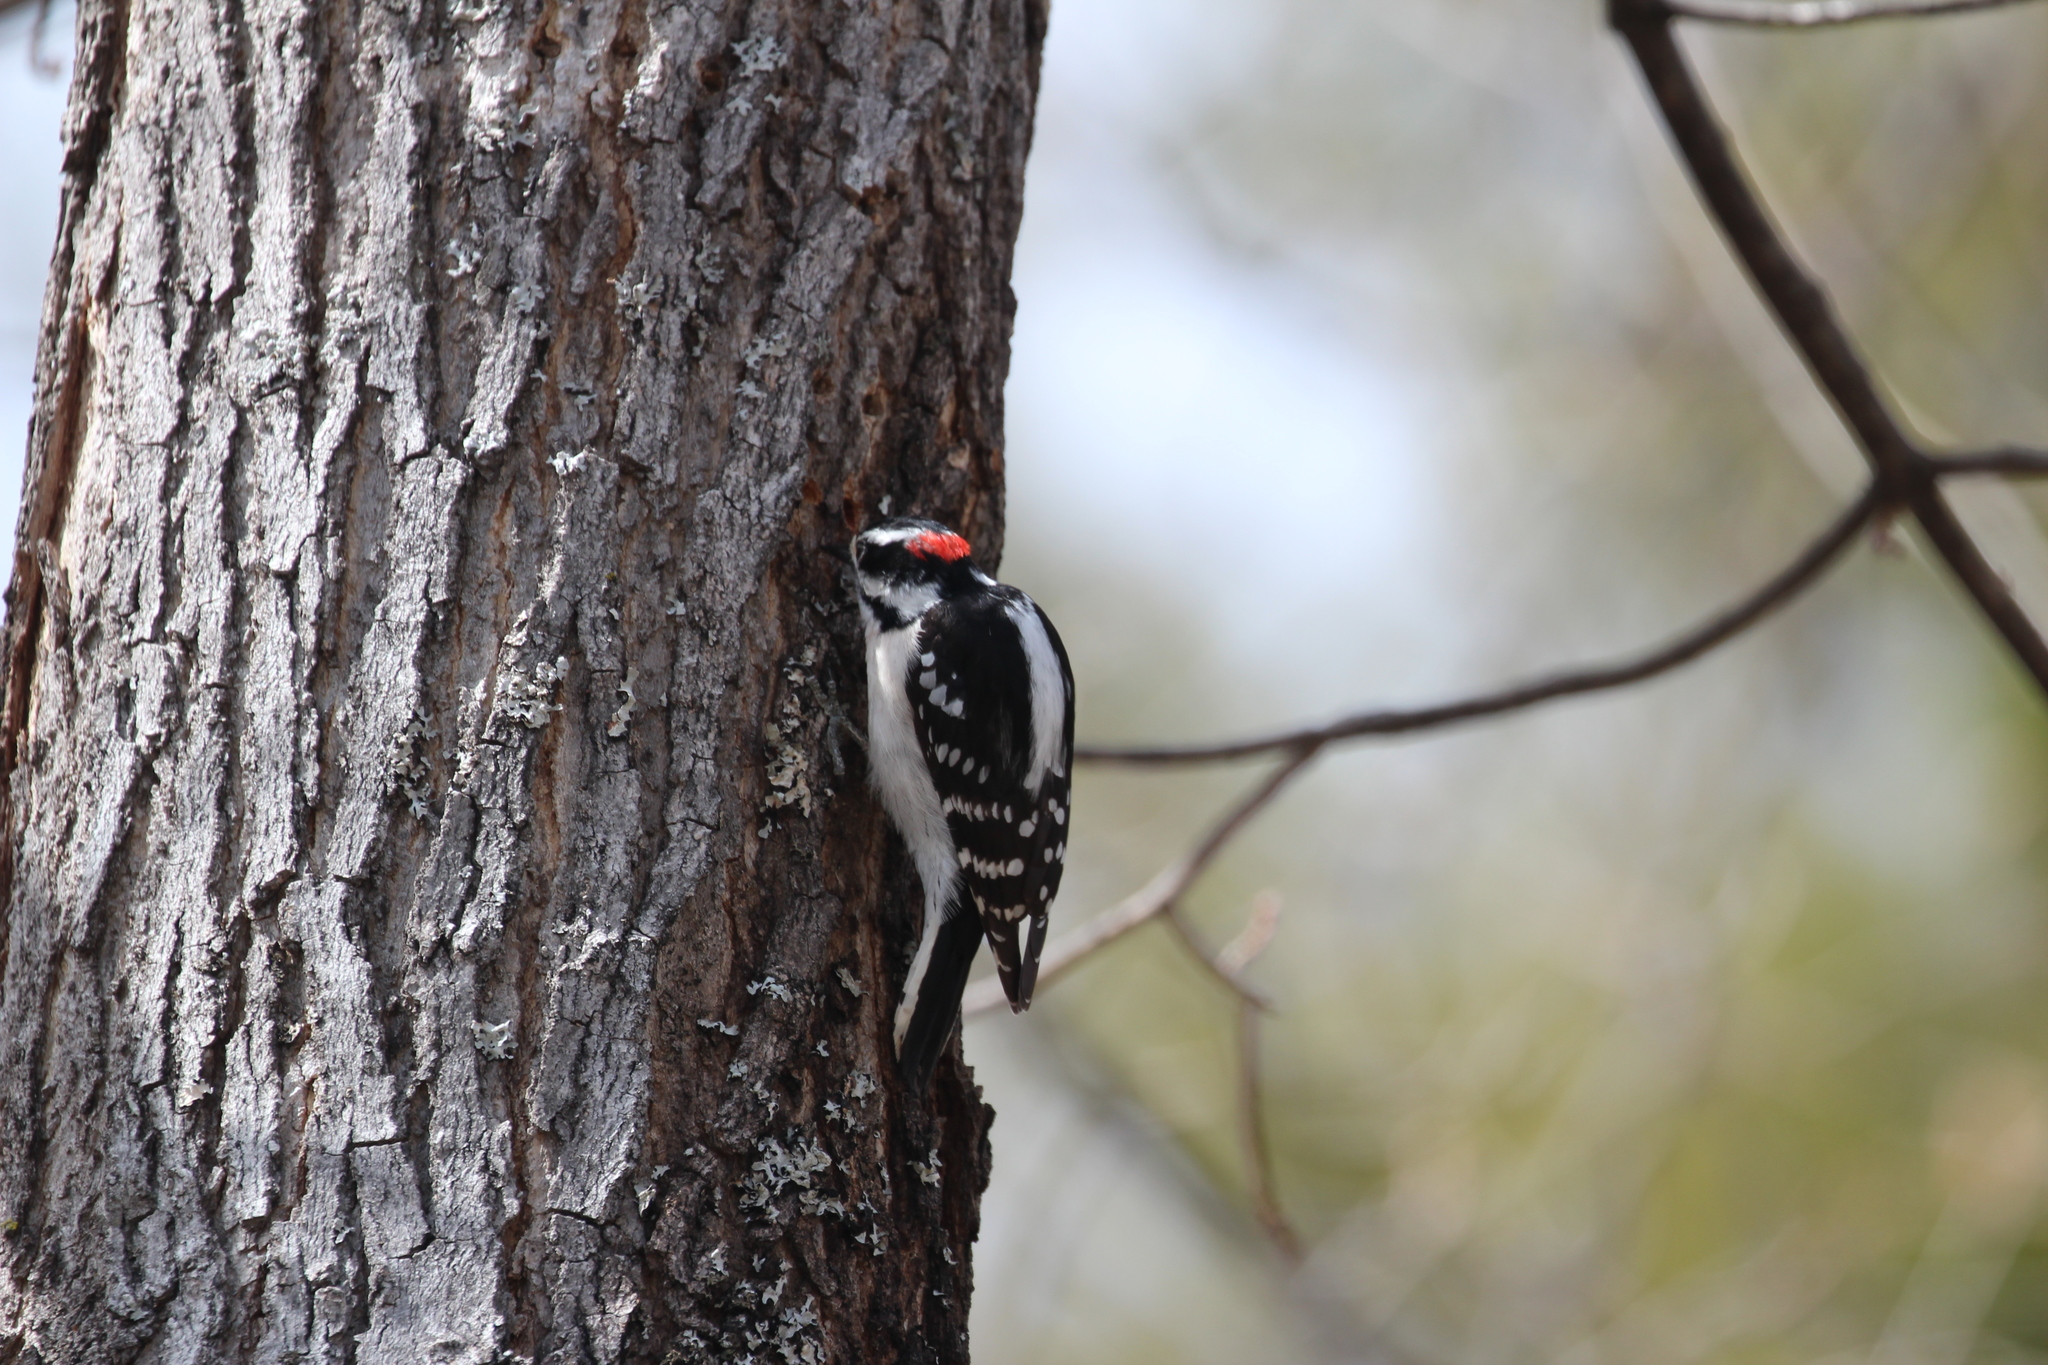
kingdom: Animalia
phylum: Chordata
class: Aves
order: Piciformes
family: Picidae
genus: Dryobates
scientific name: Dryobates pubescens
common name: Downy woodpecker
